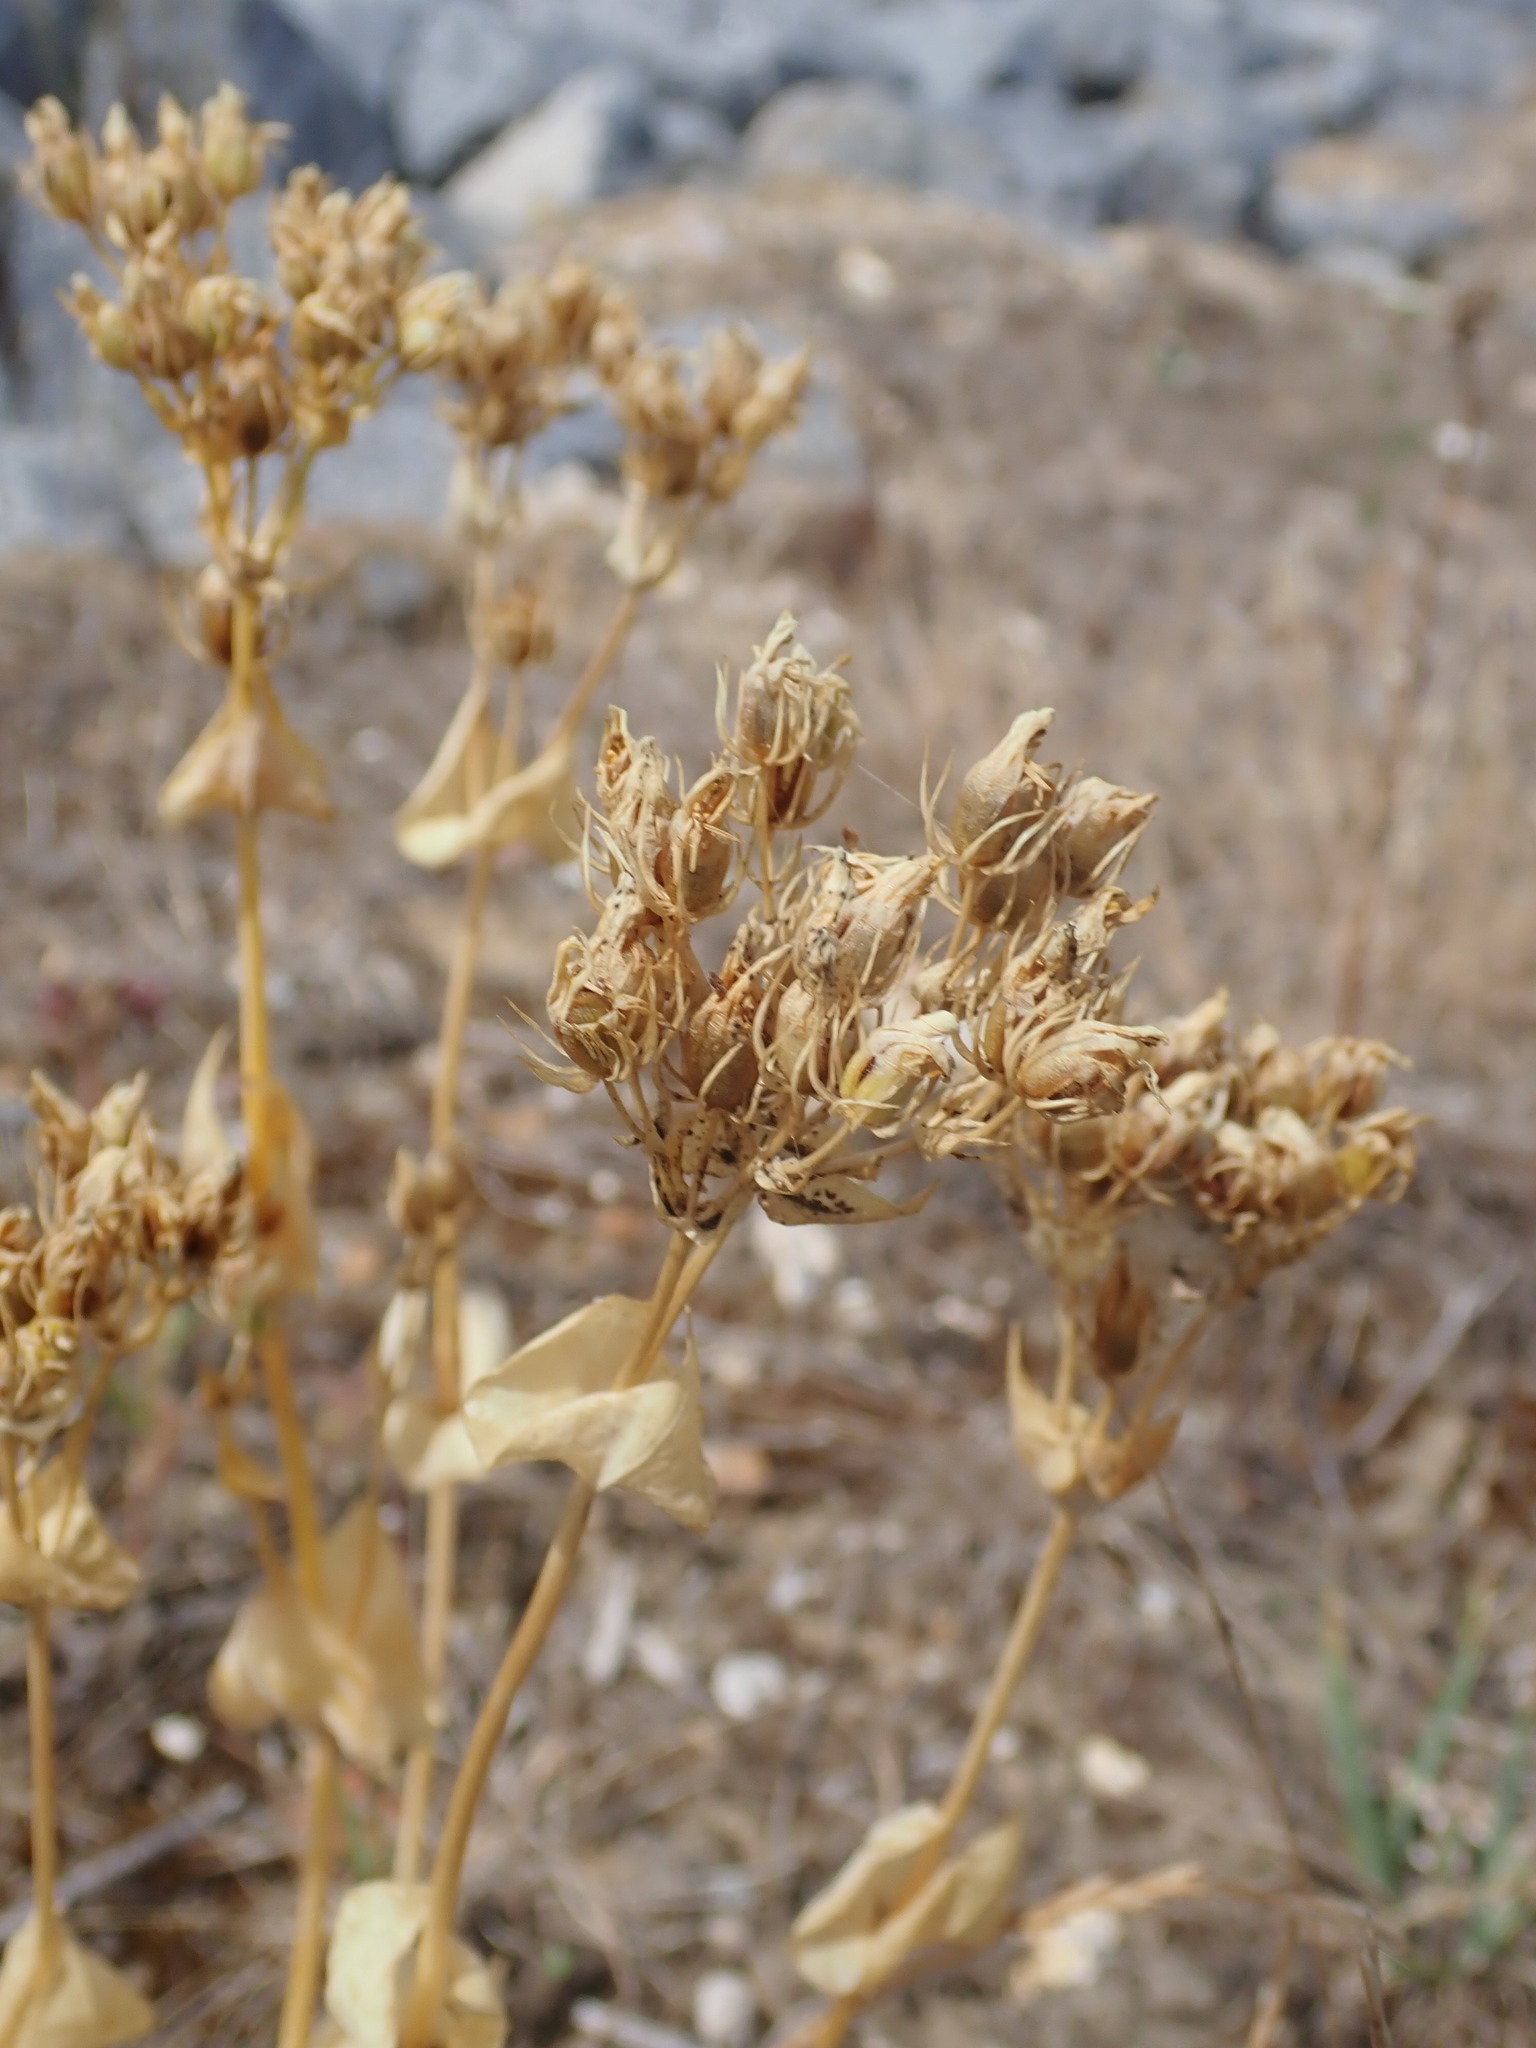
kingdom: Plantae
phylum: Tracheophyta
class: Magnoliopsida
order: Gentianales
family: Gentianaceae
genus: Blackstonia
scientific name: Blackstonia perfoliata
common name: Yellow-wort
